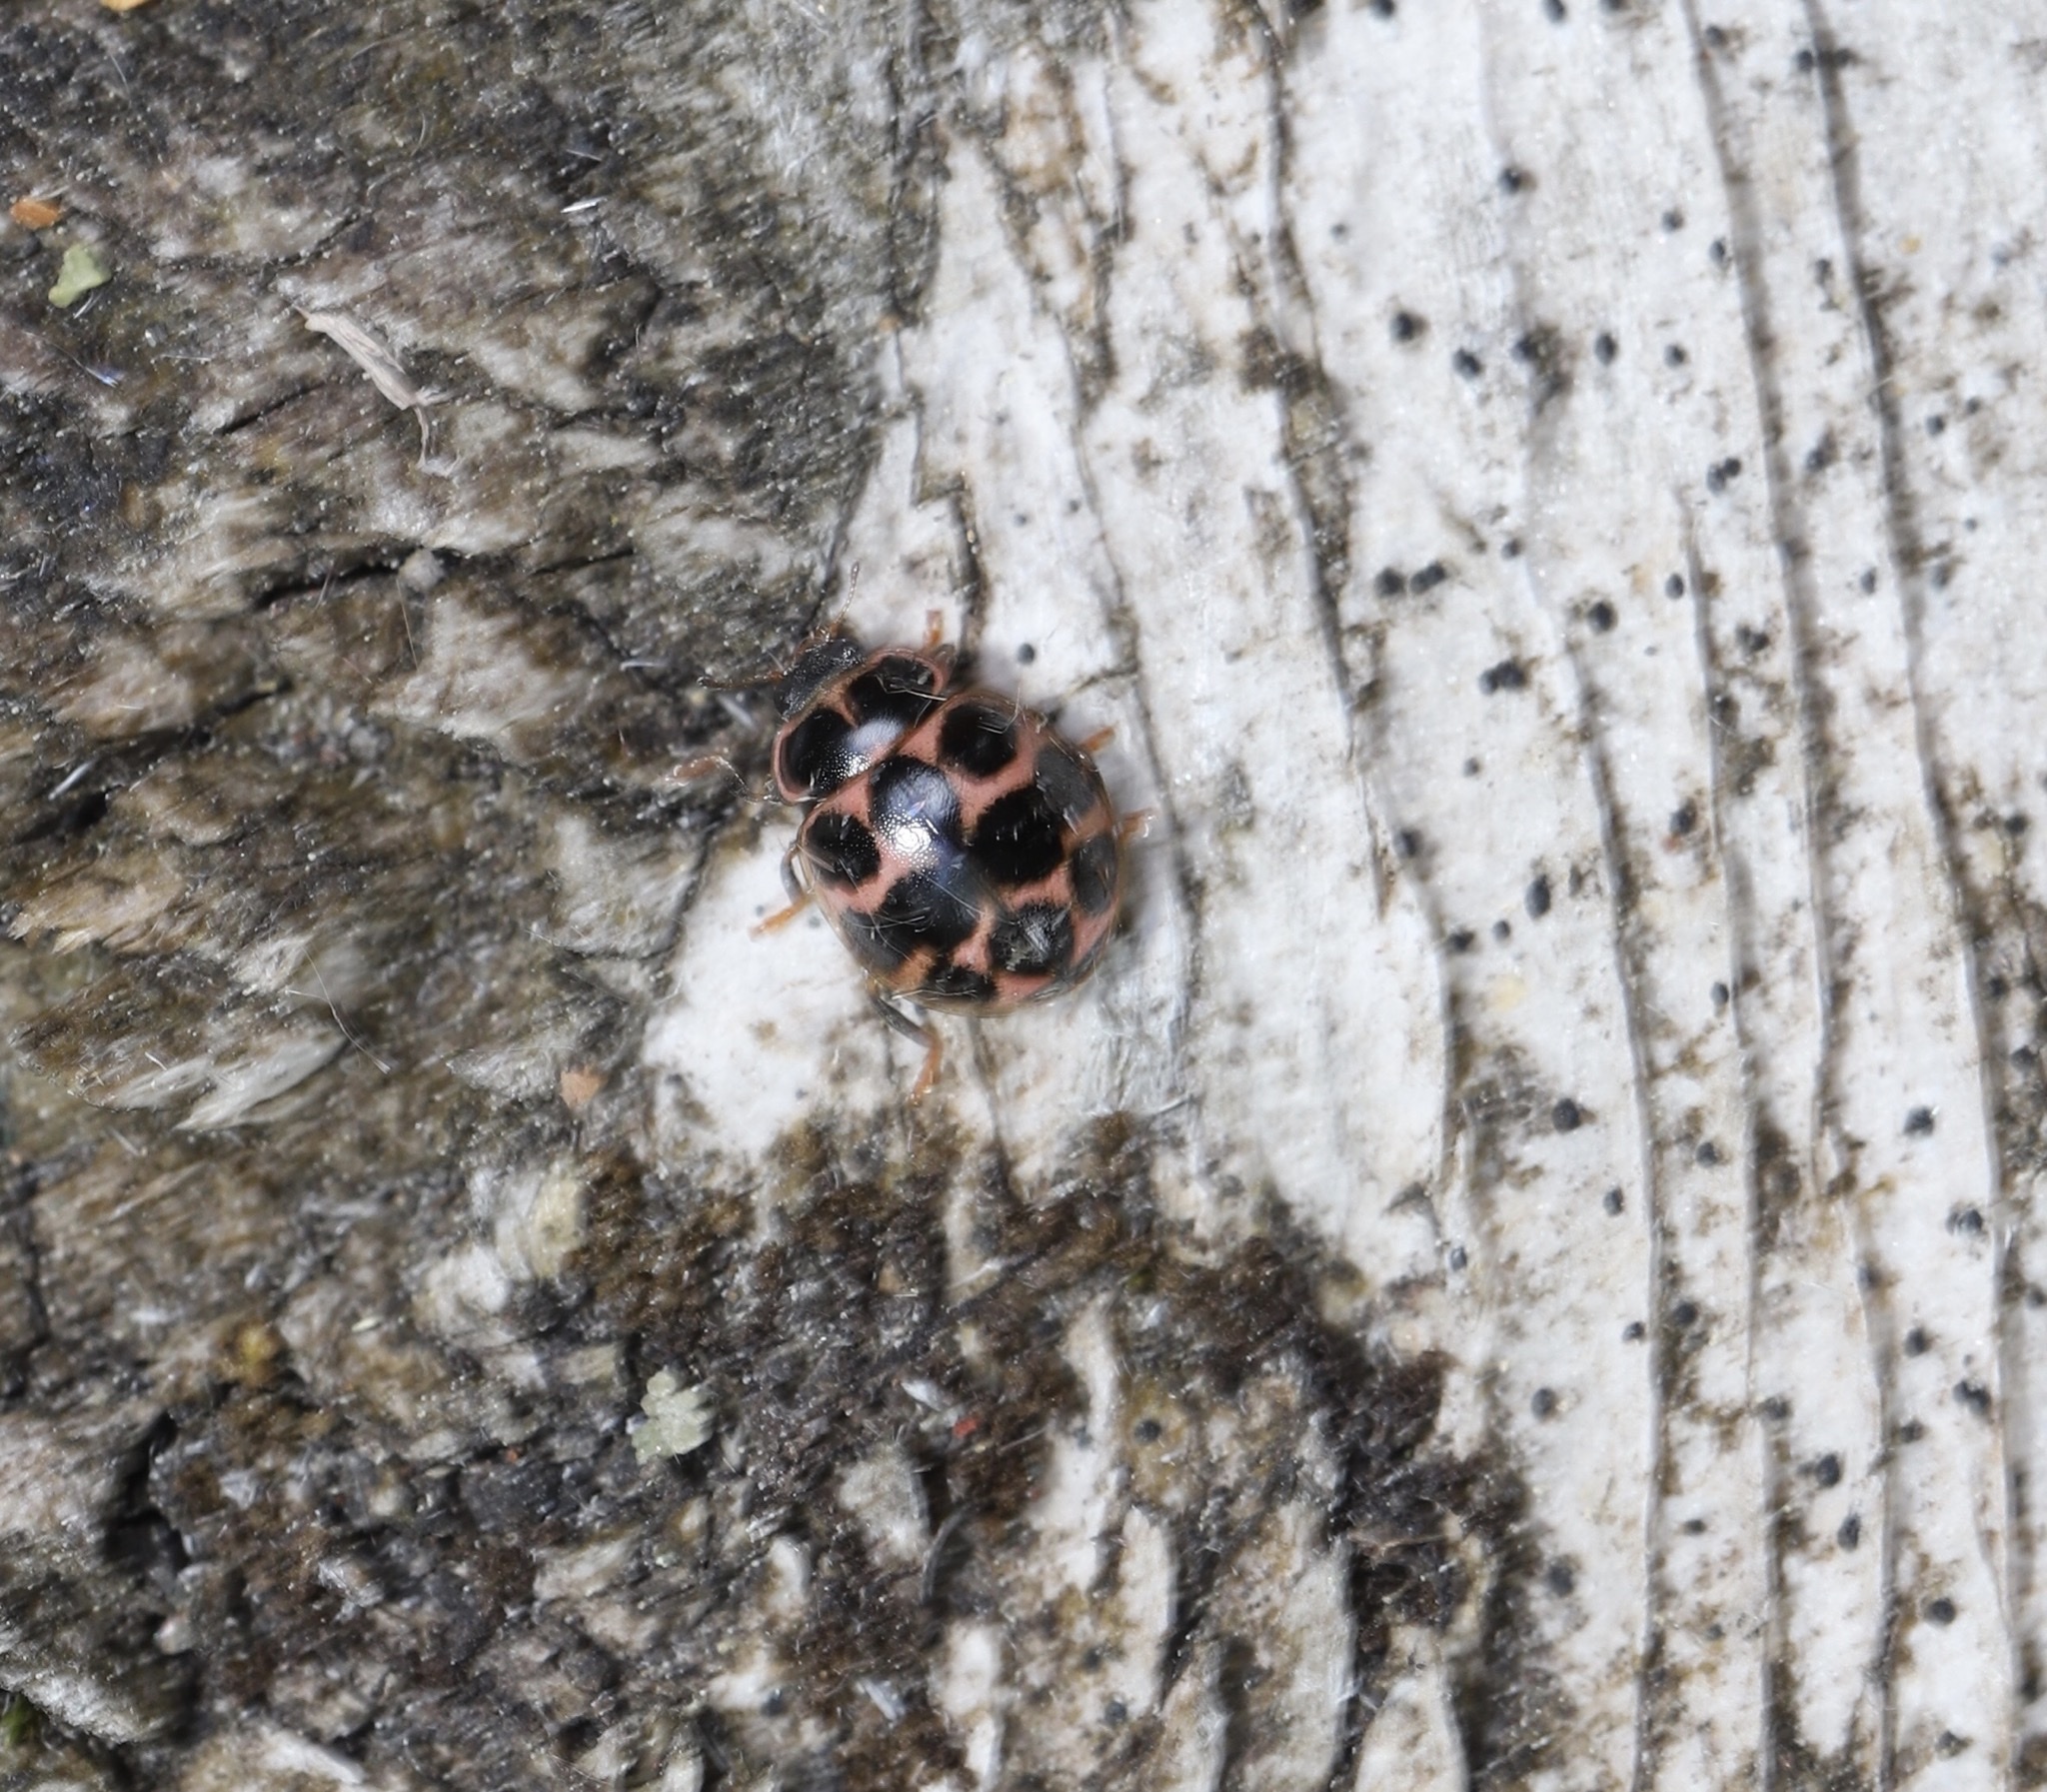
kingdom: Animalia
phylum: Arthropoda
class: Insecta
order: Coleoptera
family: Coccinellidae
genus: Calvia
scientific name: Calvia quatuordecimguttata
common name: Cream-spot ladybird
